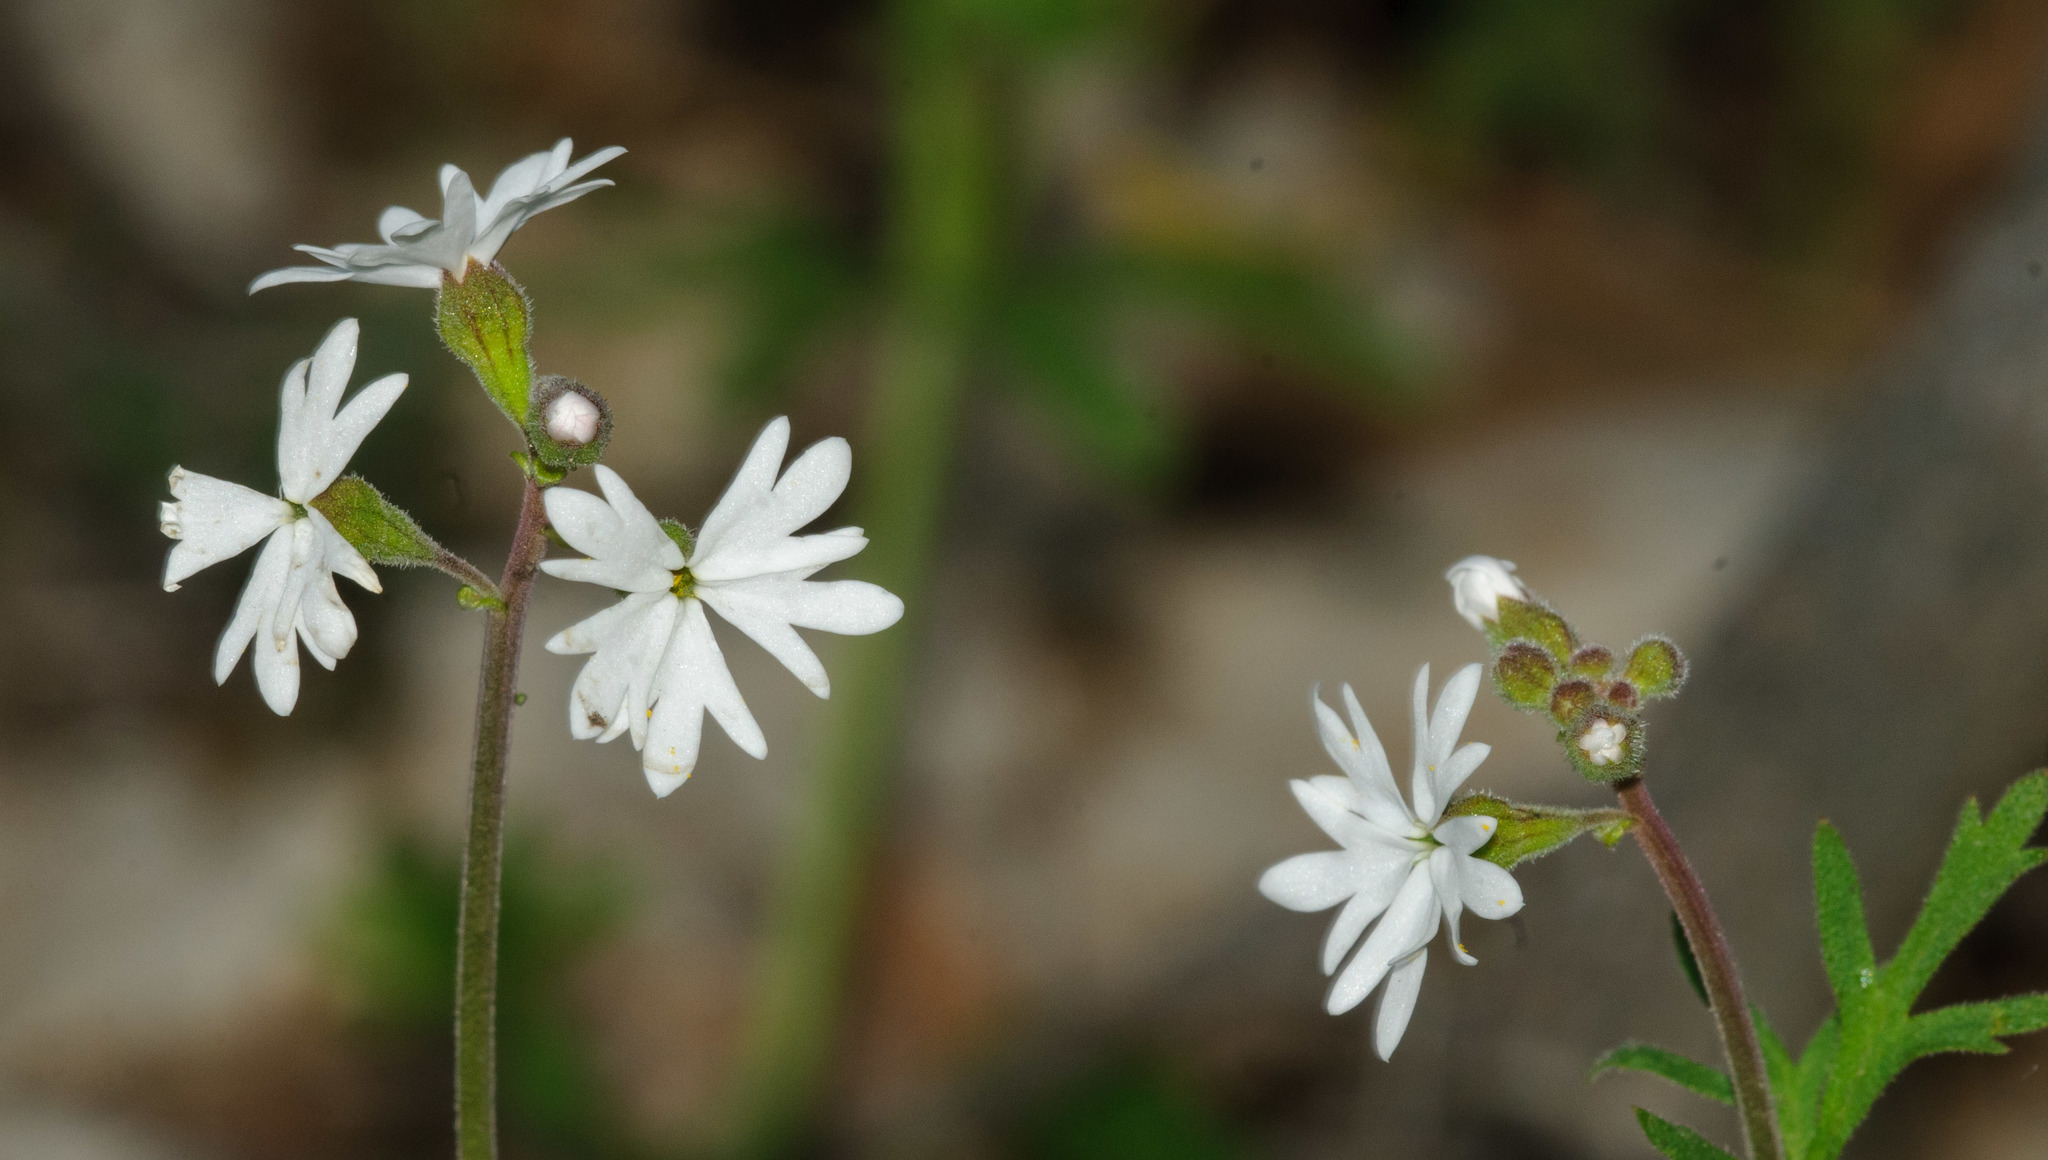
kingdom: Plantae
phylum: Tracheophyta
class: Magnoliopsida
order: Saxifragales
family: Saxifragaceae
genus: Lithophragma
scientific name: Lithophragma parviflorum
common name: Small-flowered fringe-cup
